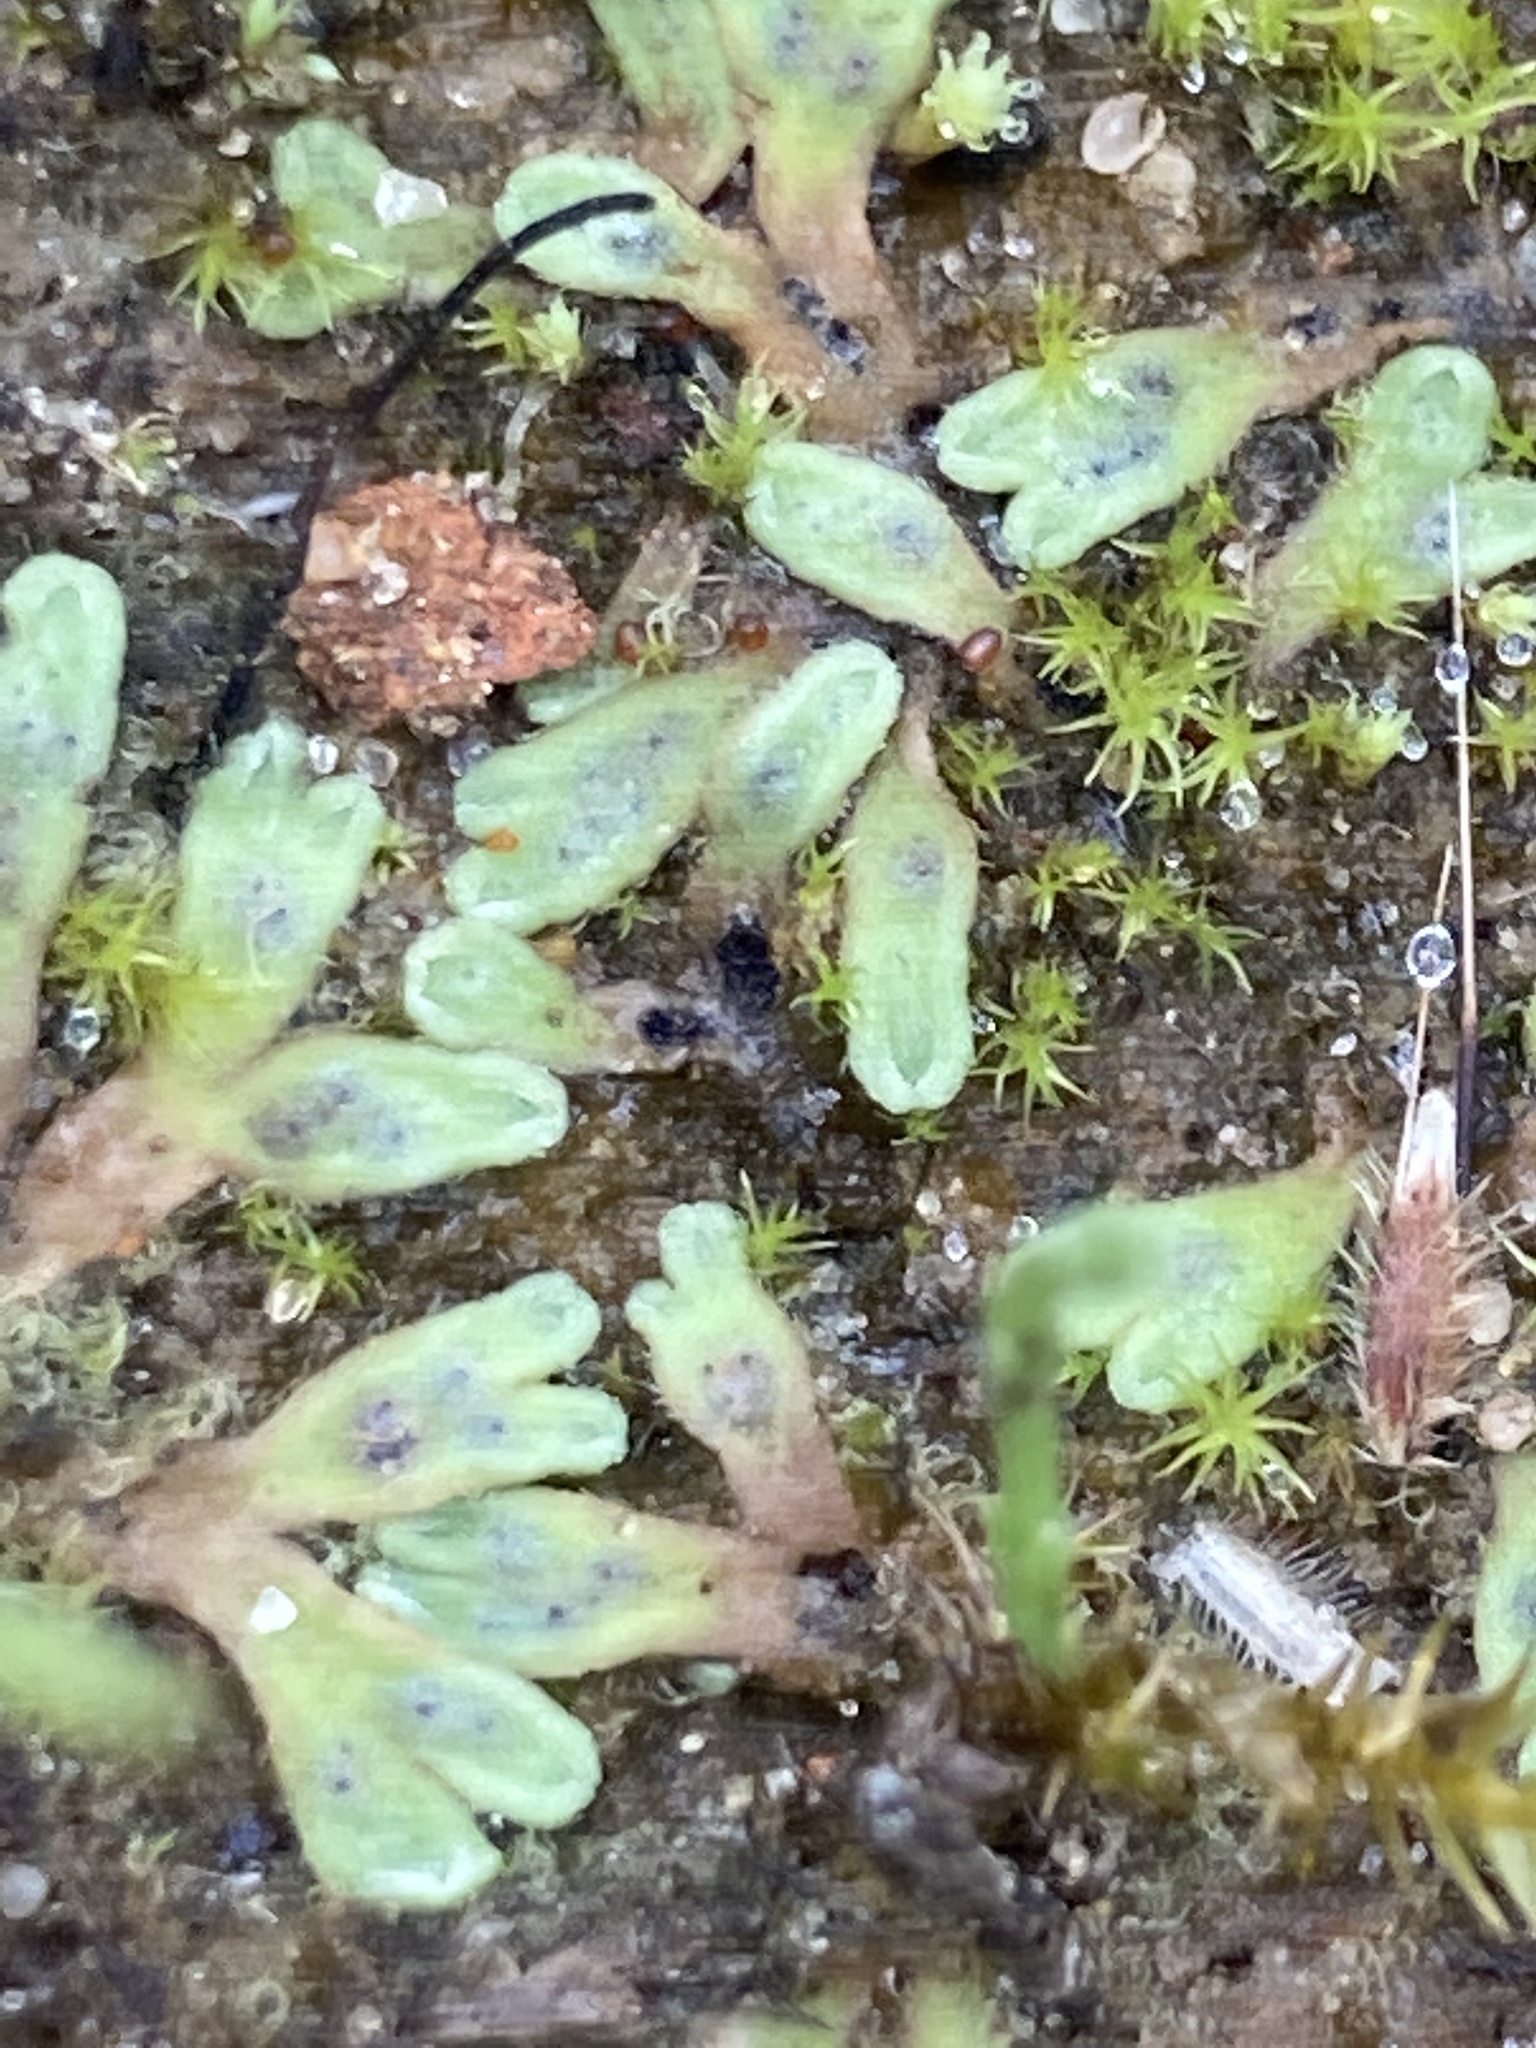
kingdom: Plantae
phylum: Marchantiophyta
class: Marchantiopsida
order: Marchantiales
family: Ricciaceae
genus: Riccia
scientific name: Riccia beyrichiana
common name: Purple crystalwort
